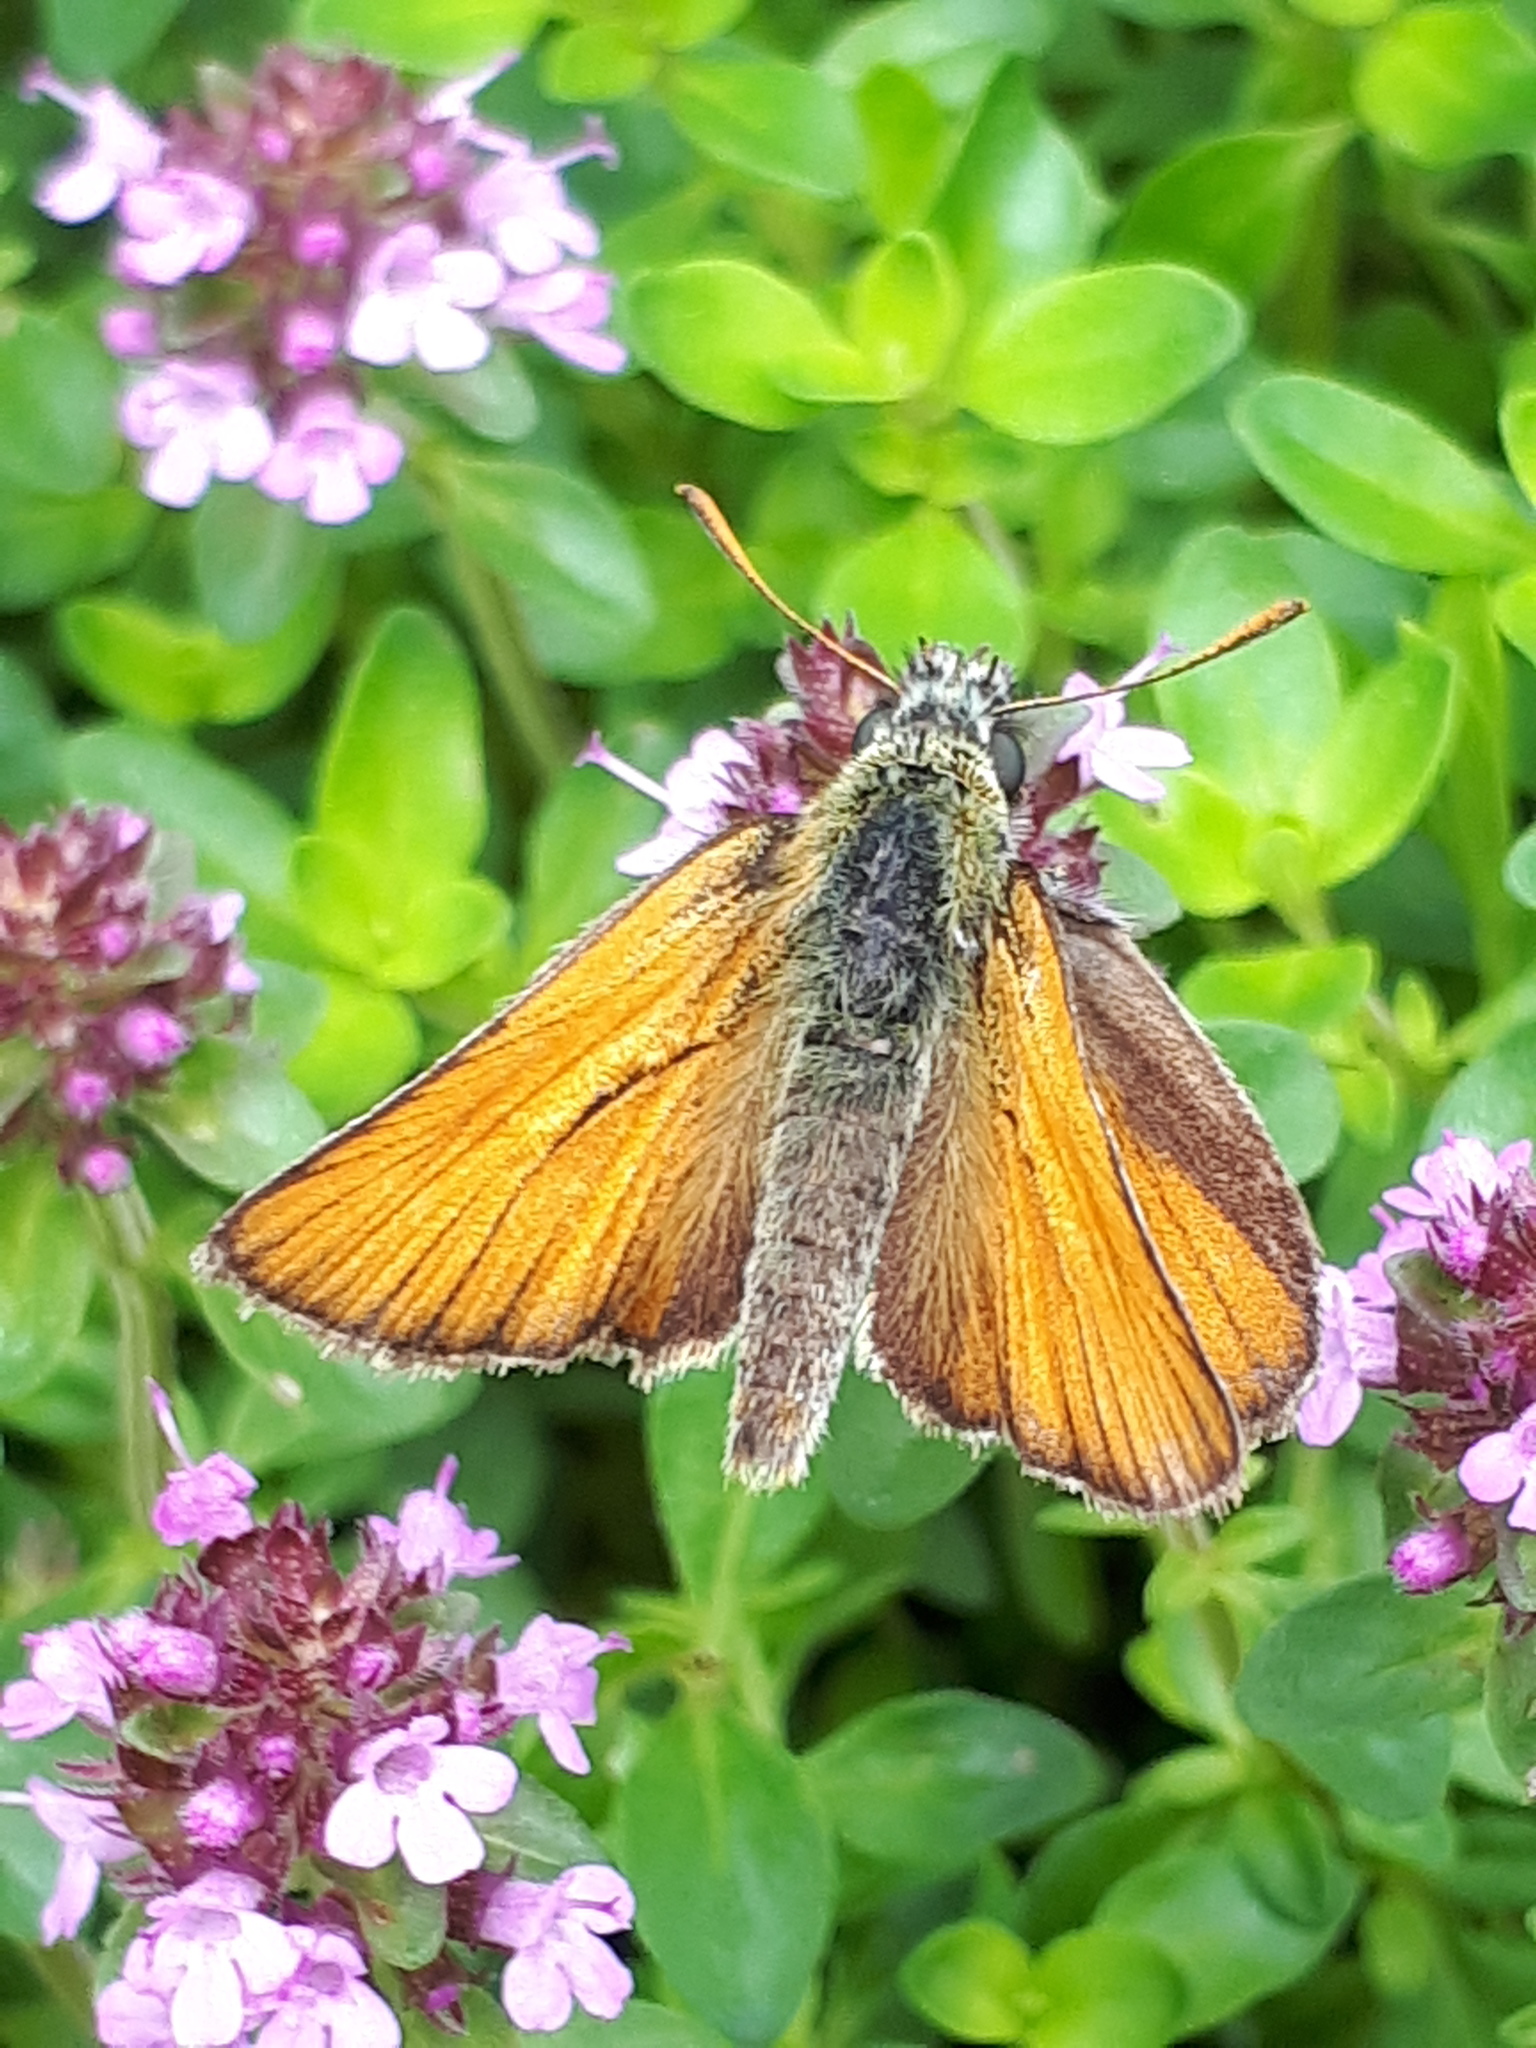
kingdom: Animalia
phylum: Arthropoda
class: Insecta
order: Lepidoptera
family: Hesperiidae
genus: Thymelicus
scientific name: Thymelicus sylvestris
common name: Small skipper
